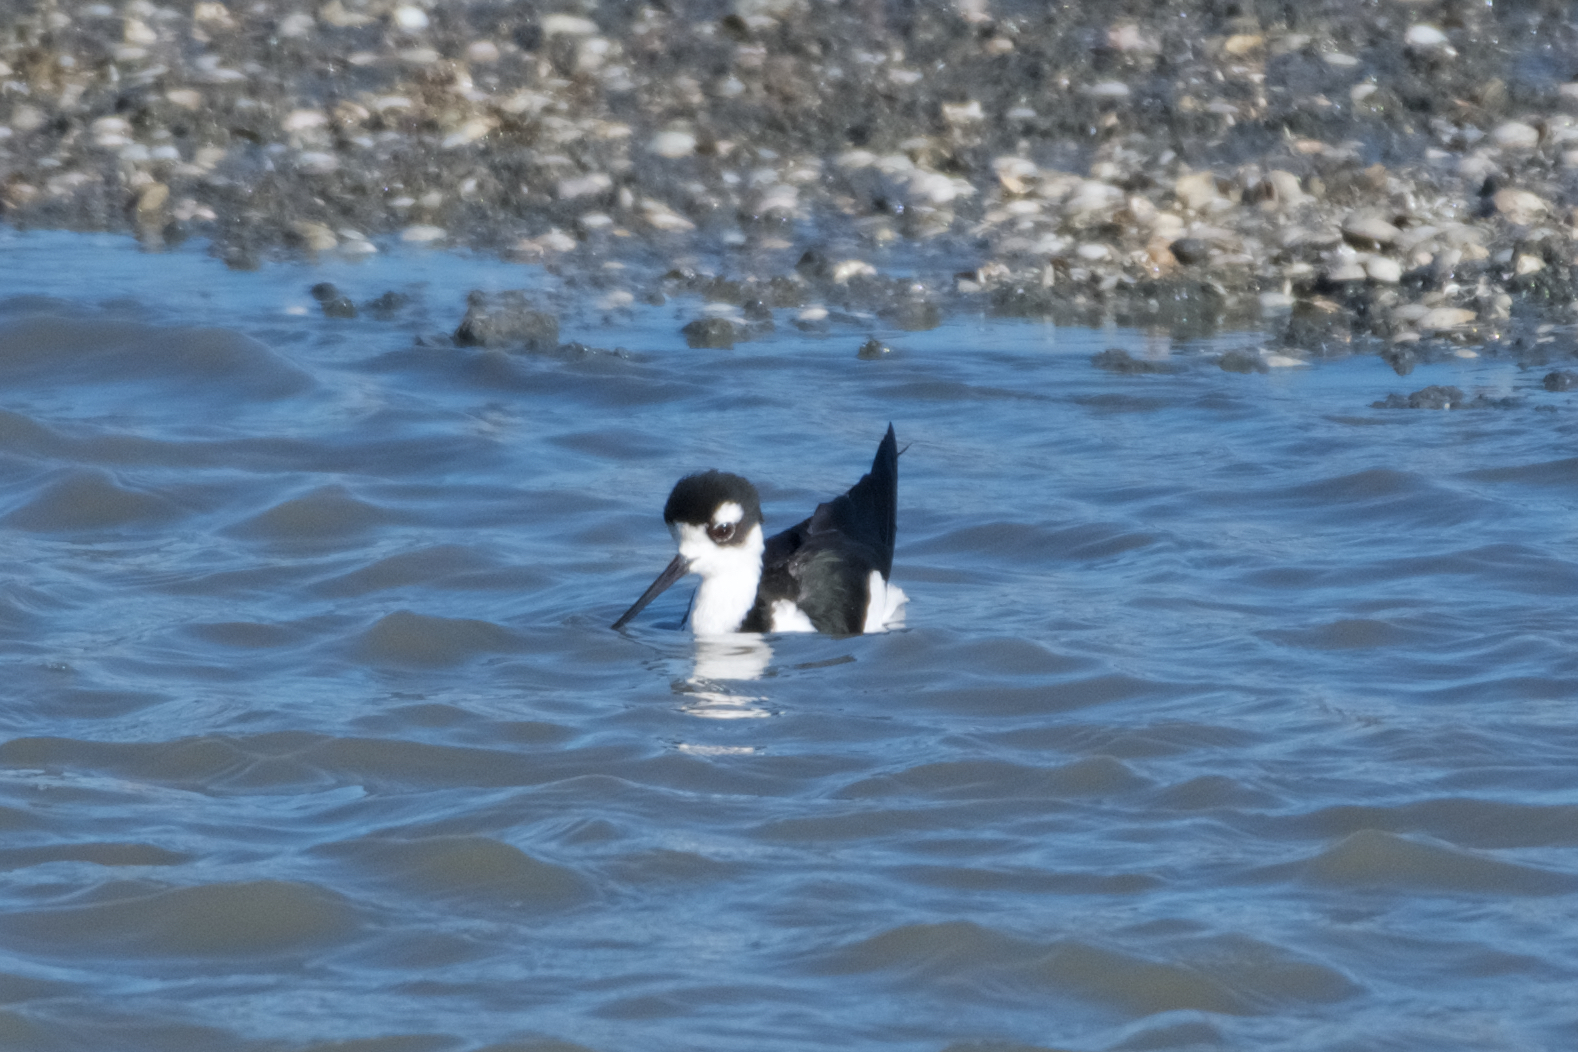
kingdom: Animalia
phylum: Chordata
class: Aves
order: Charadriiformes
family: Recurvirostridae
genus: Himantopus
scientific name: Himantopus mexicanus
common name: Black-necked stilt
